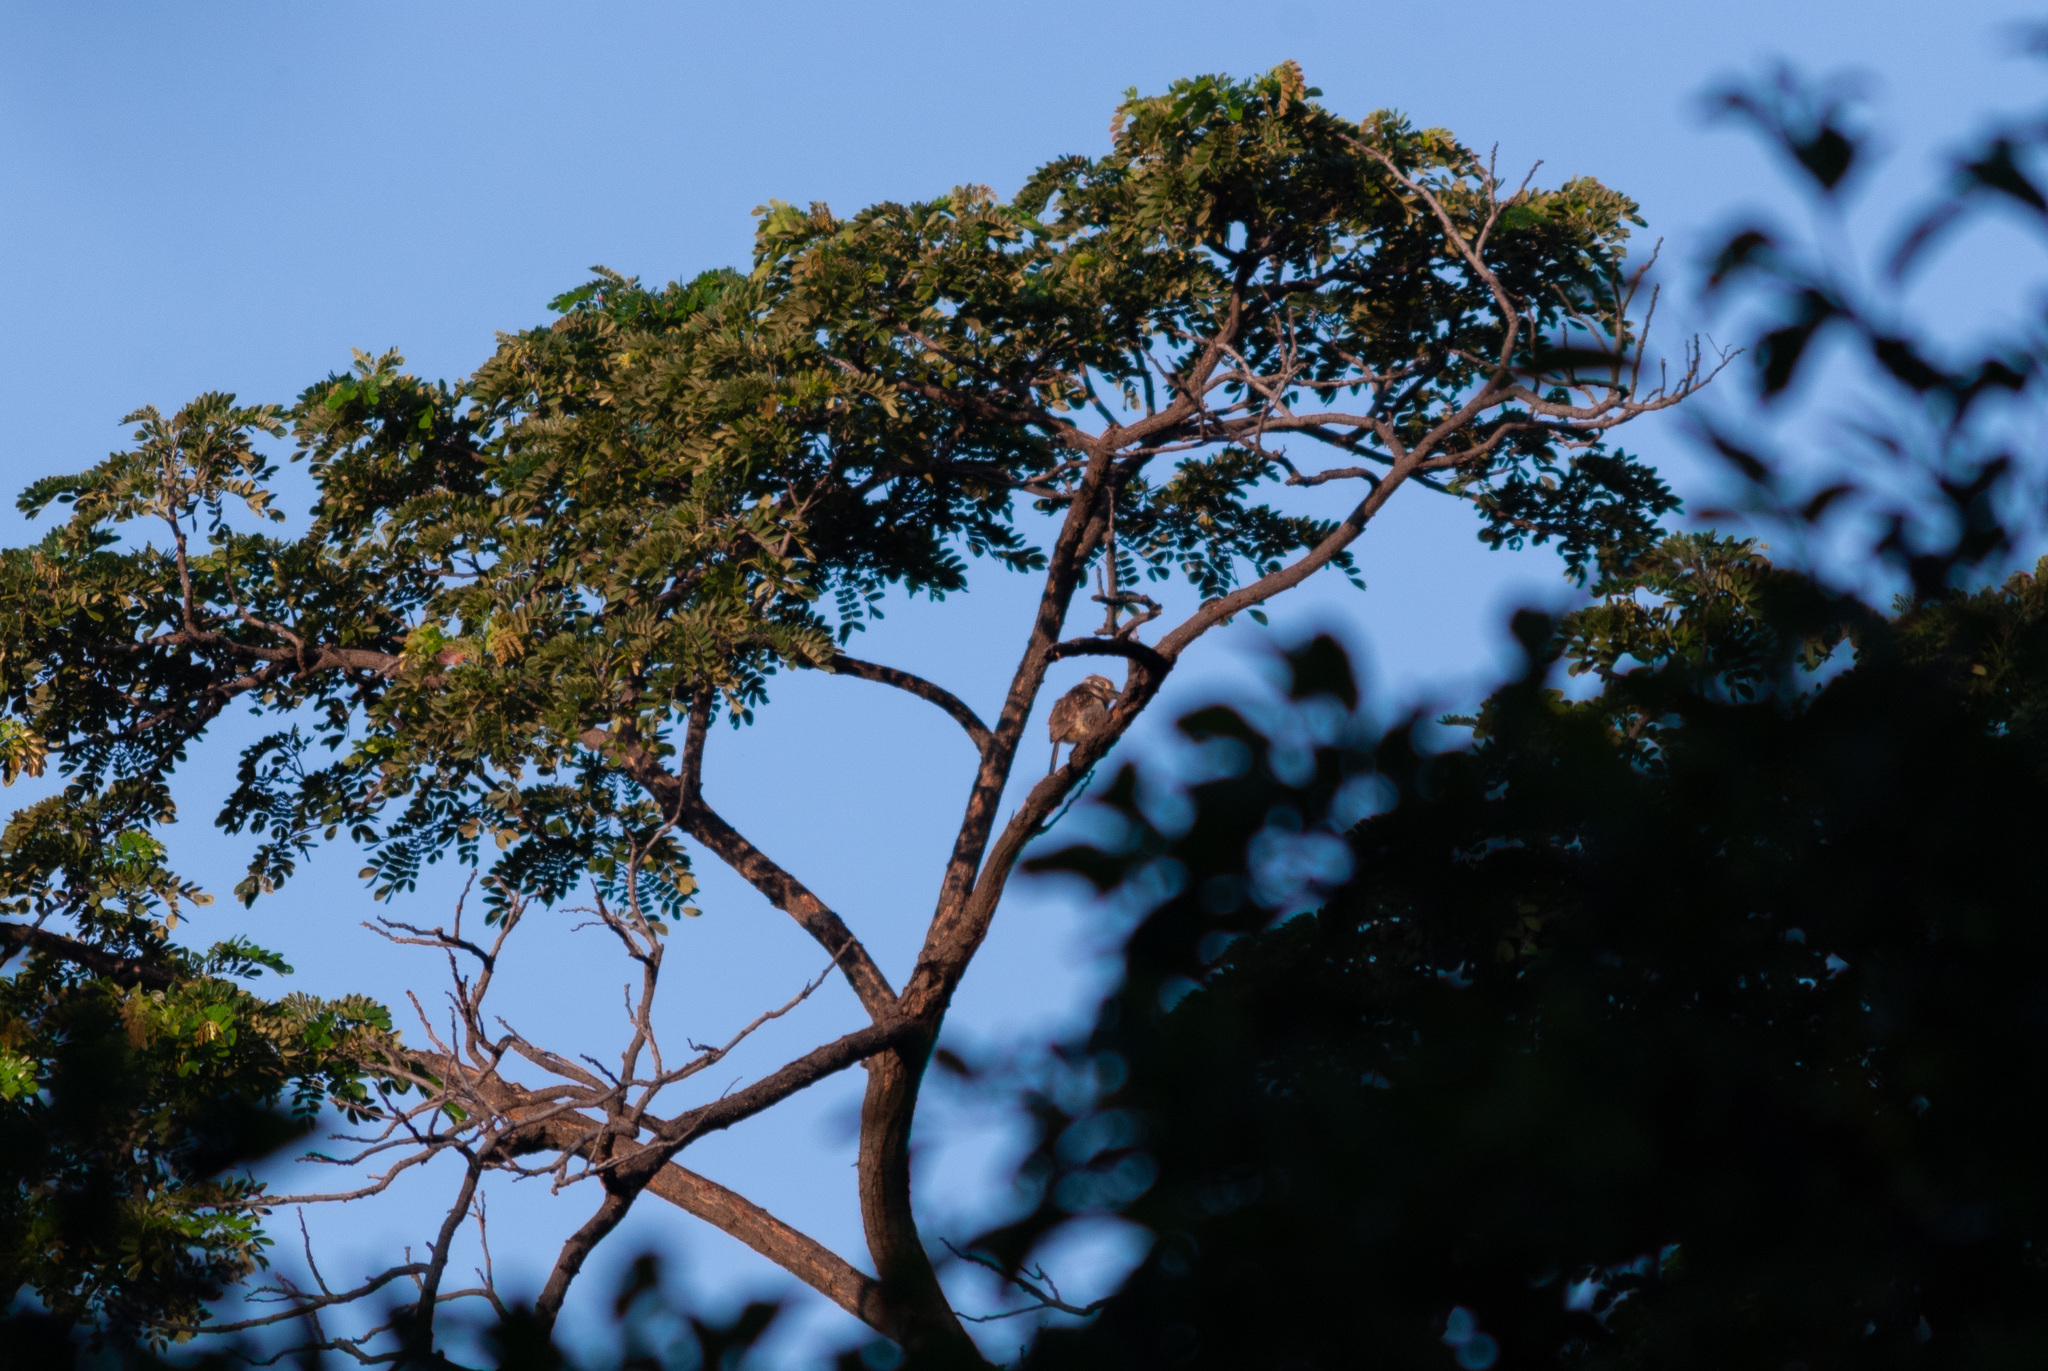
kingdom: Animalia
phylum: Chordata
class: Aves
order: Piciformes
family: Bucconidae
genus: Hypnelus
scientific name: Hypnelus ruficollis
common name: Russet-throated puffbird
